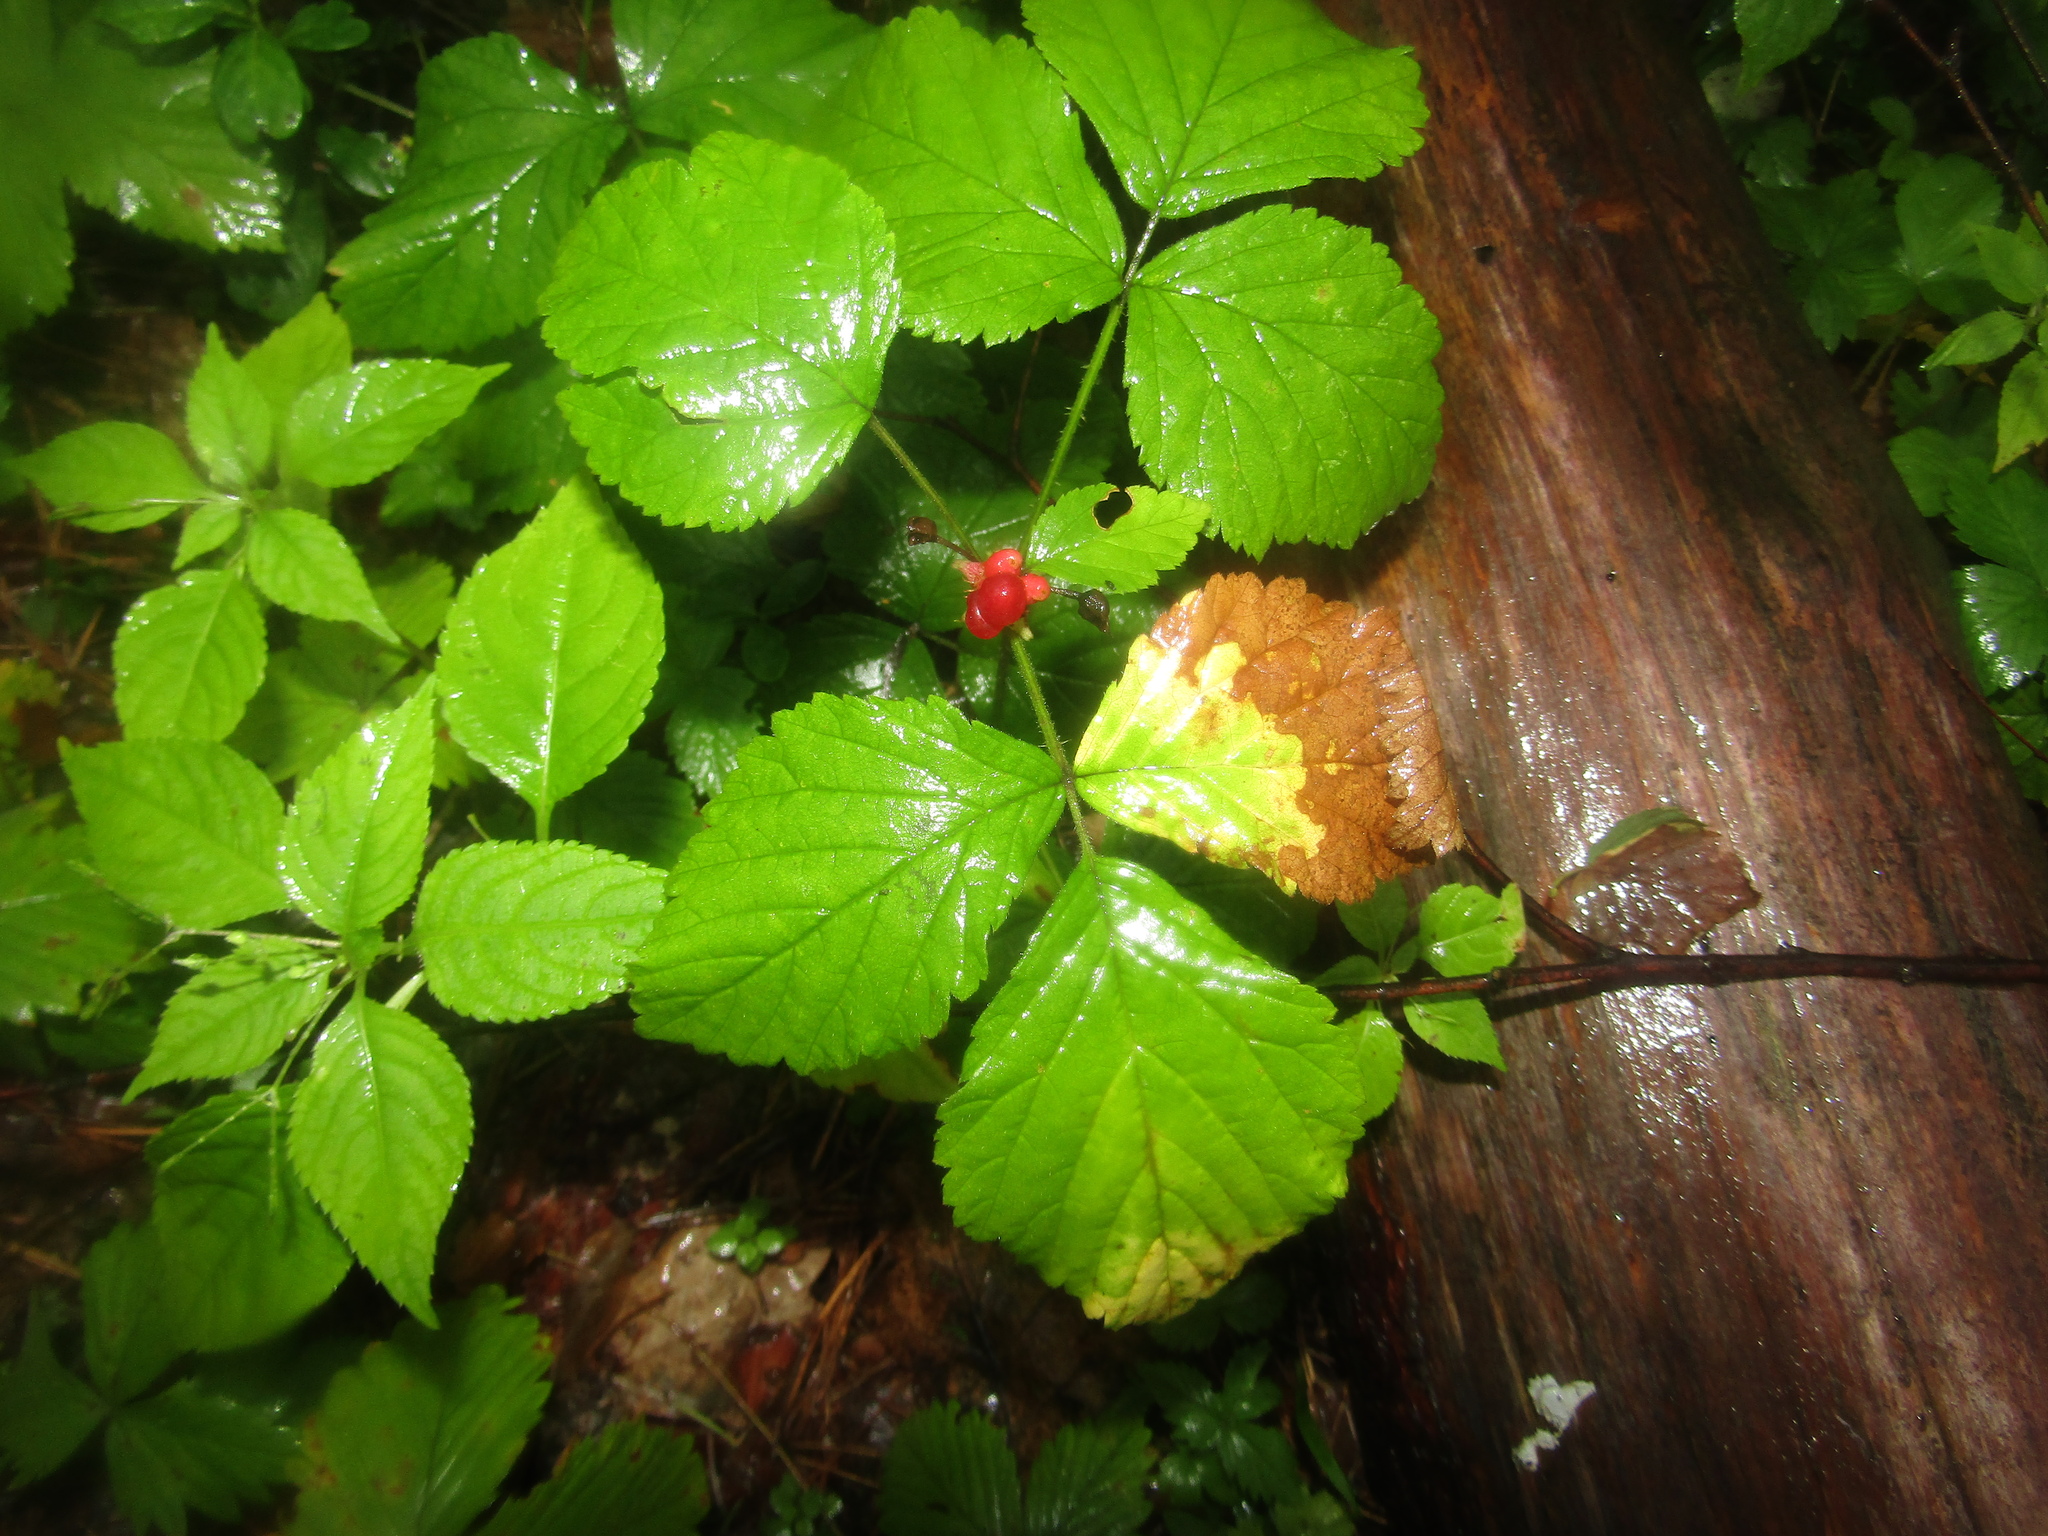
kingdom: Plantae
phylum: Tracheophyta
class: Magnoliopsida
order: Rosales
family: Rosaceae
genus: Rubus
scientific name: Rubus saxatilis
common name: Stone bramble
